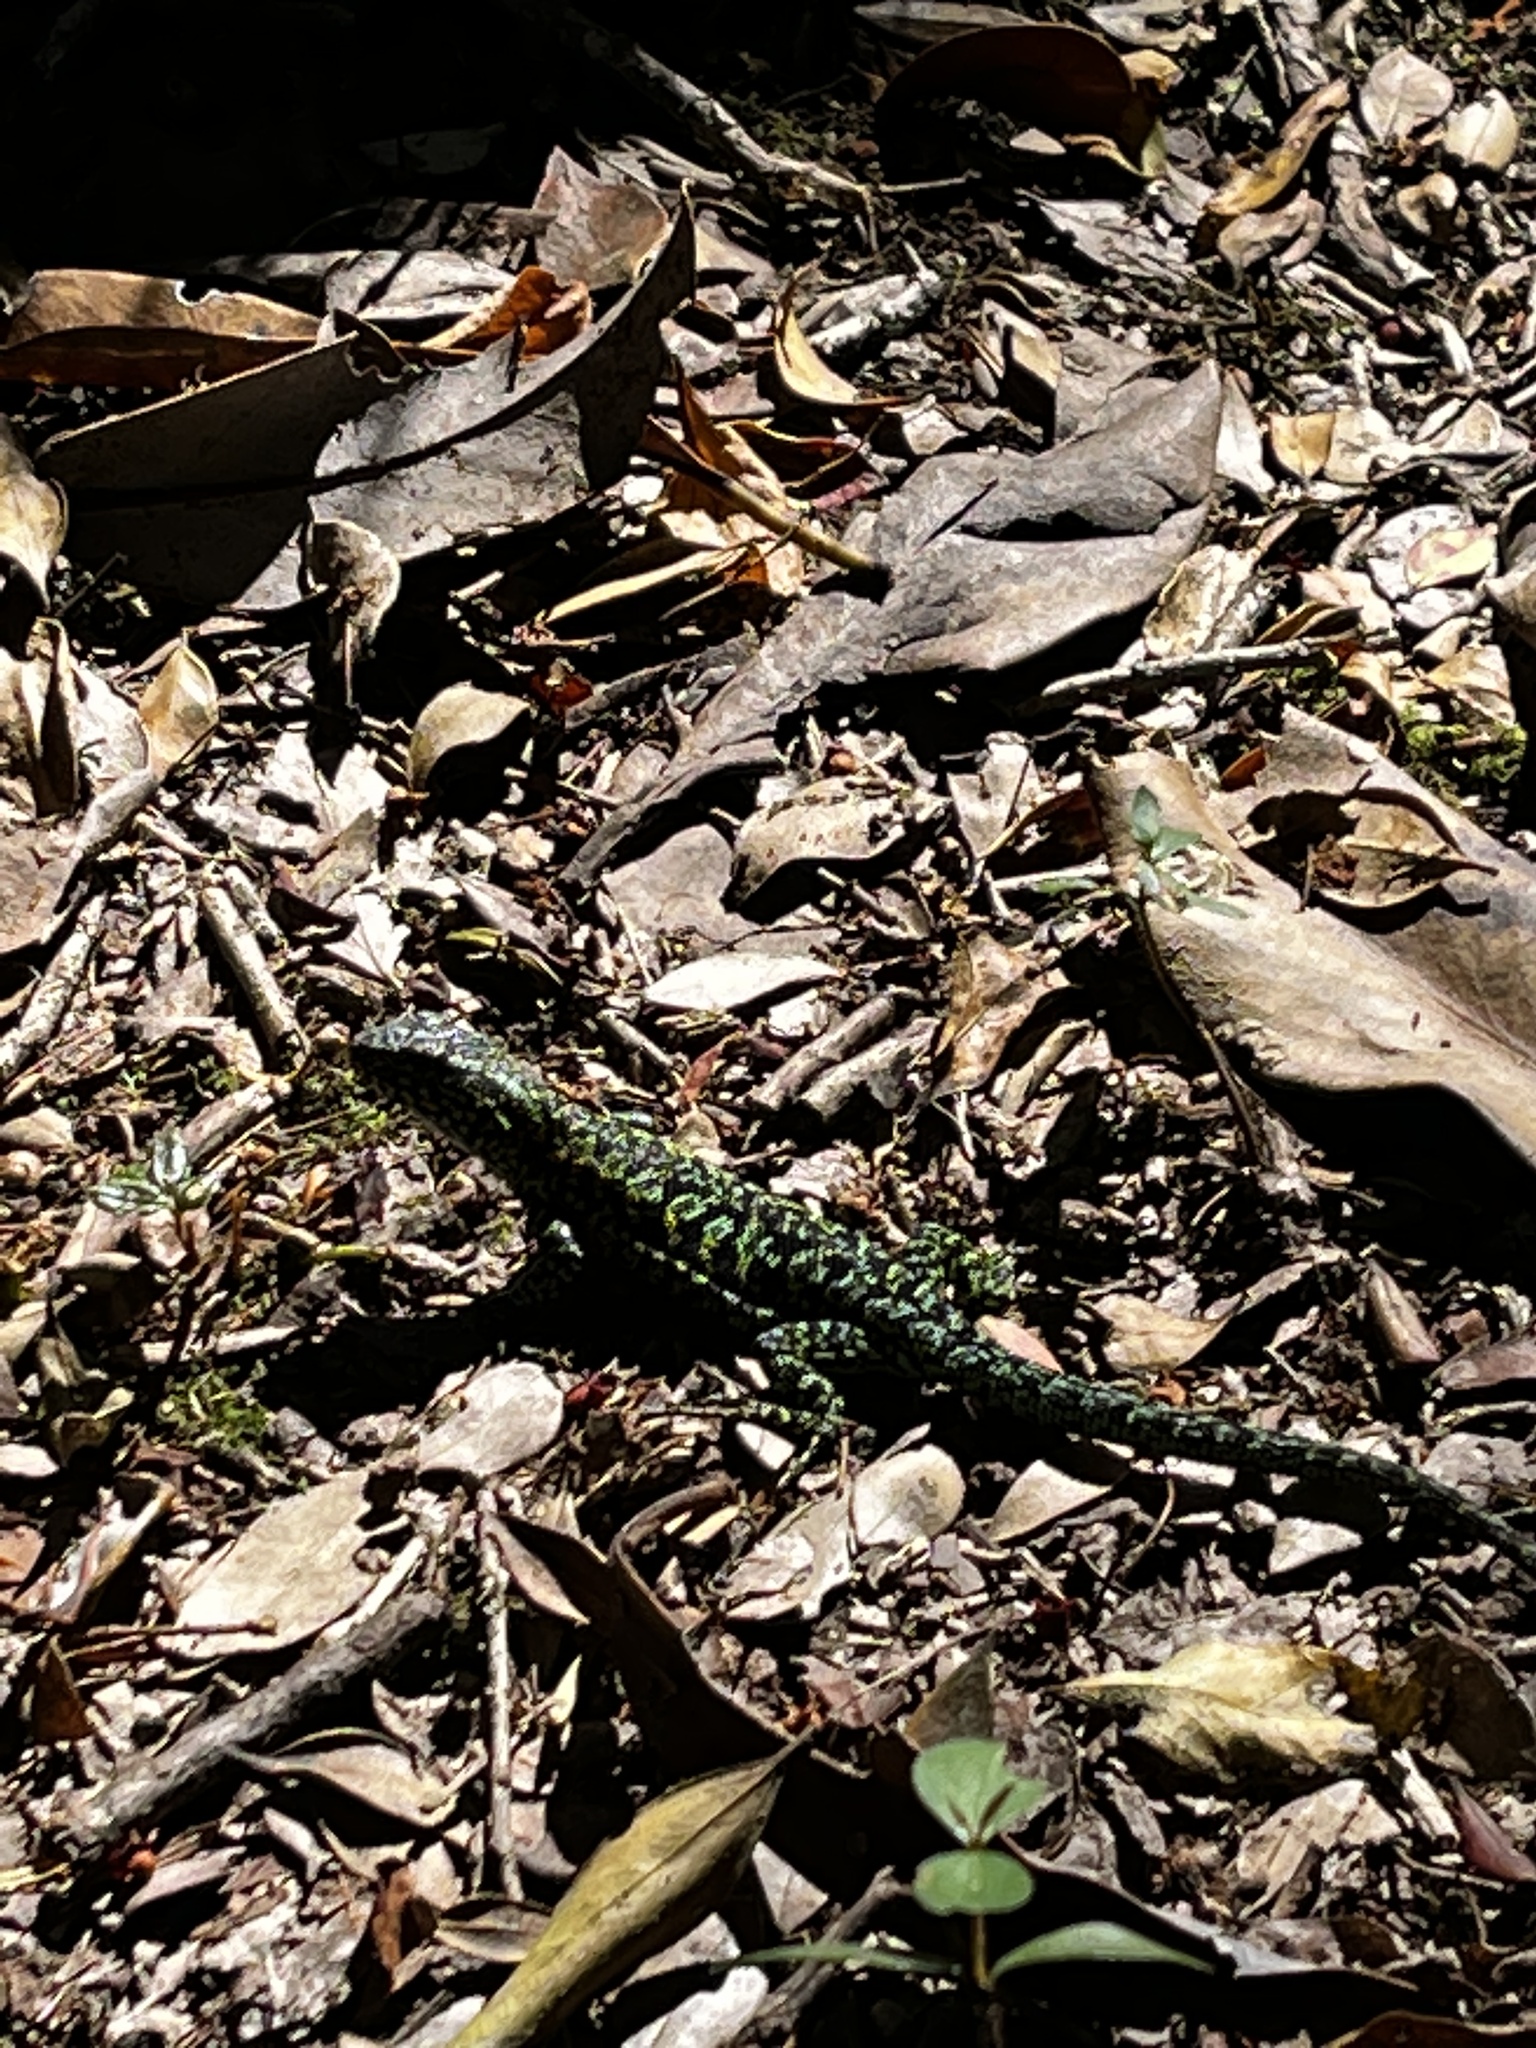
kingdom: Animalia
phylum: Chordata
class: Squamata
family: Liolaemidae
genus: Liolaemus
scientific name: Liolaemus pictus
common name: Painted tree iguana
